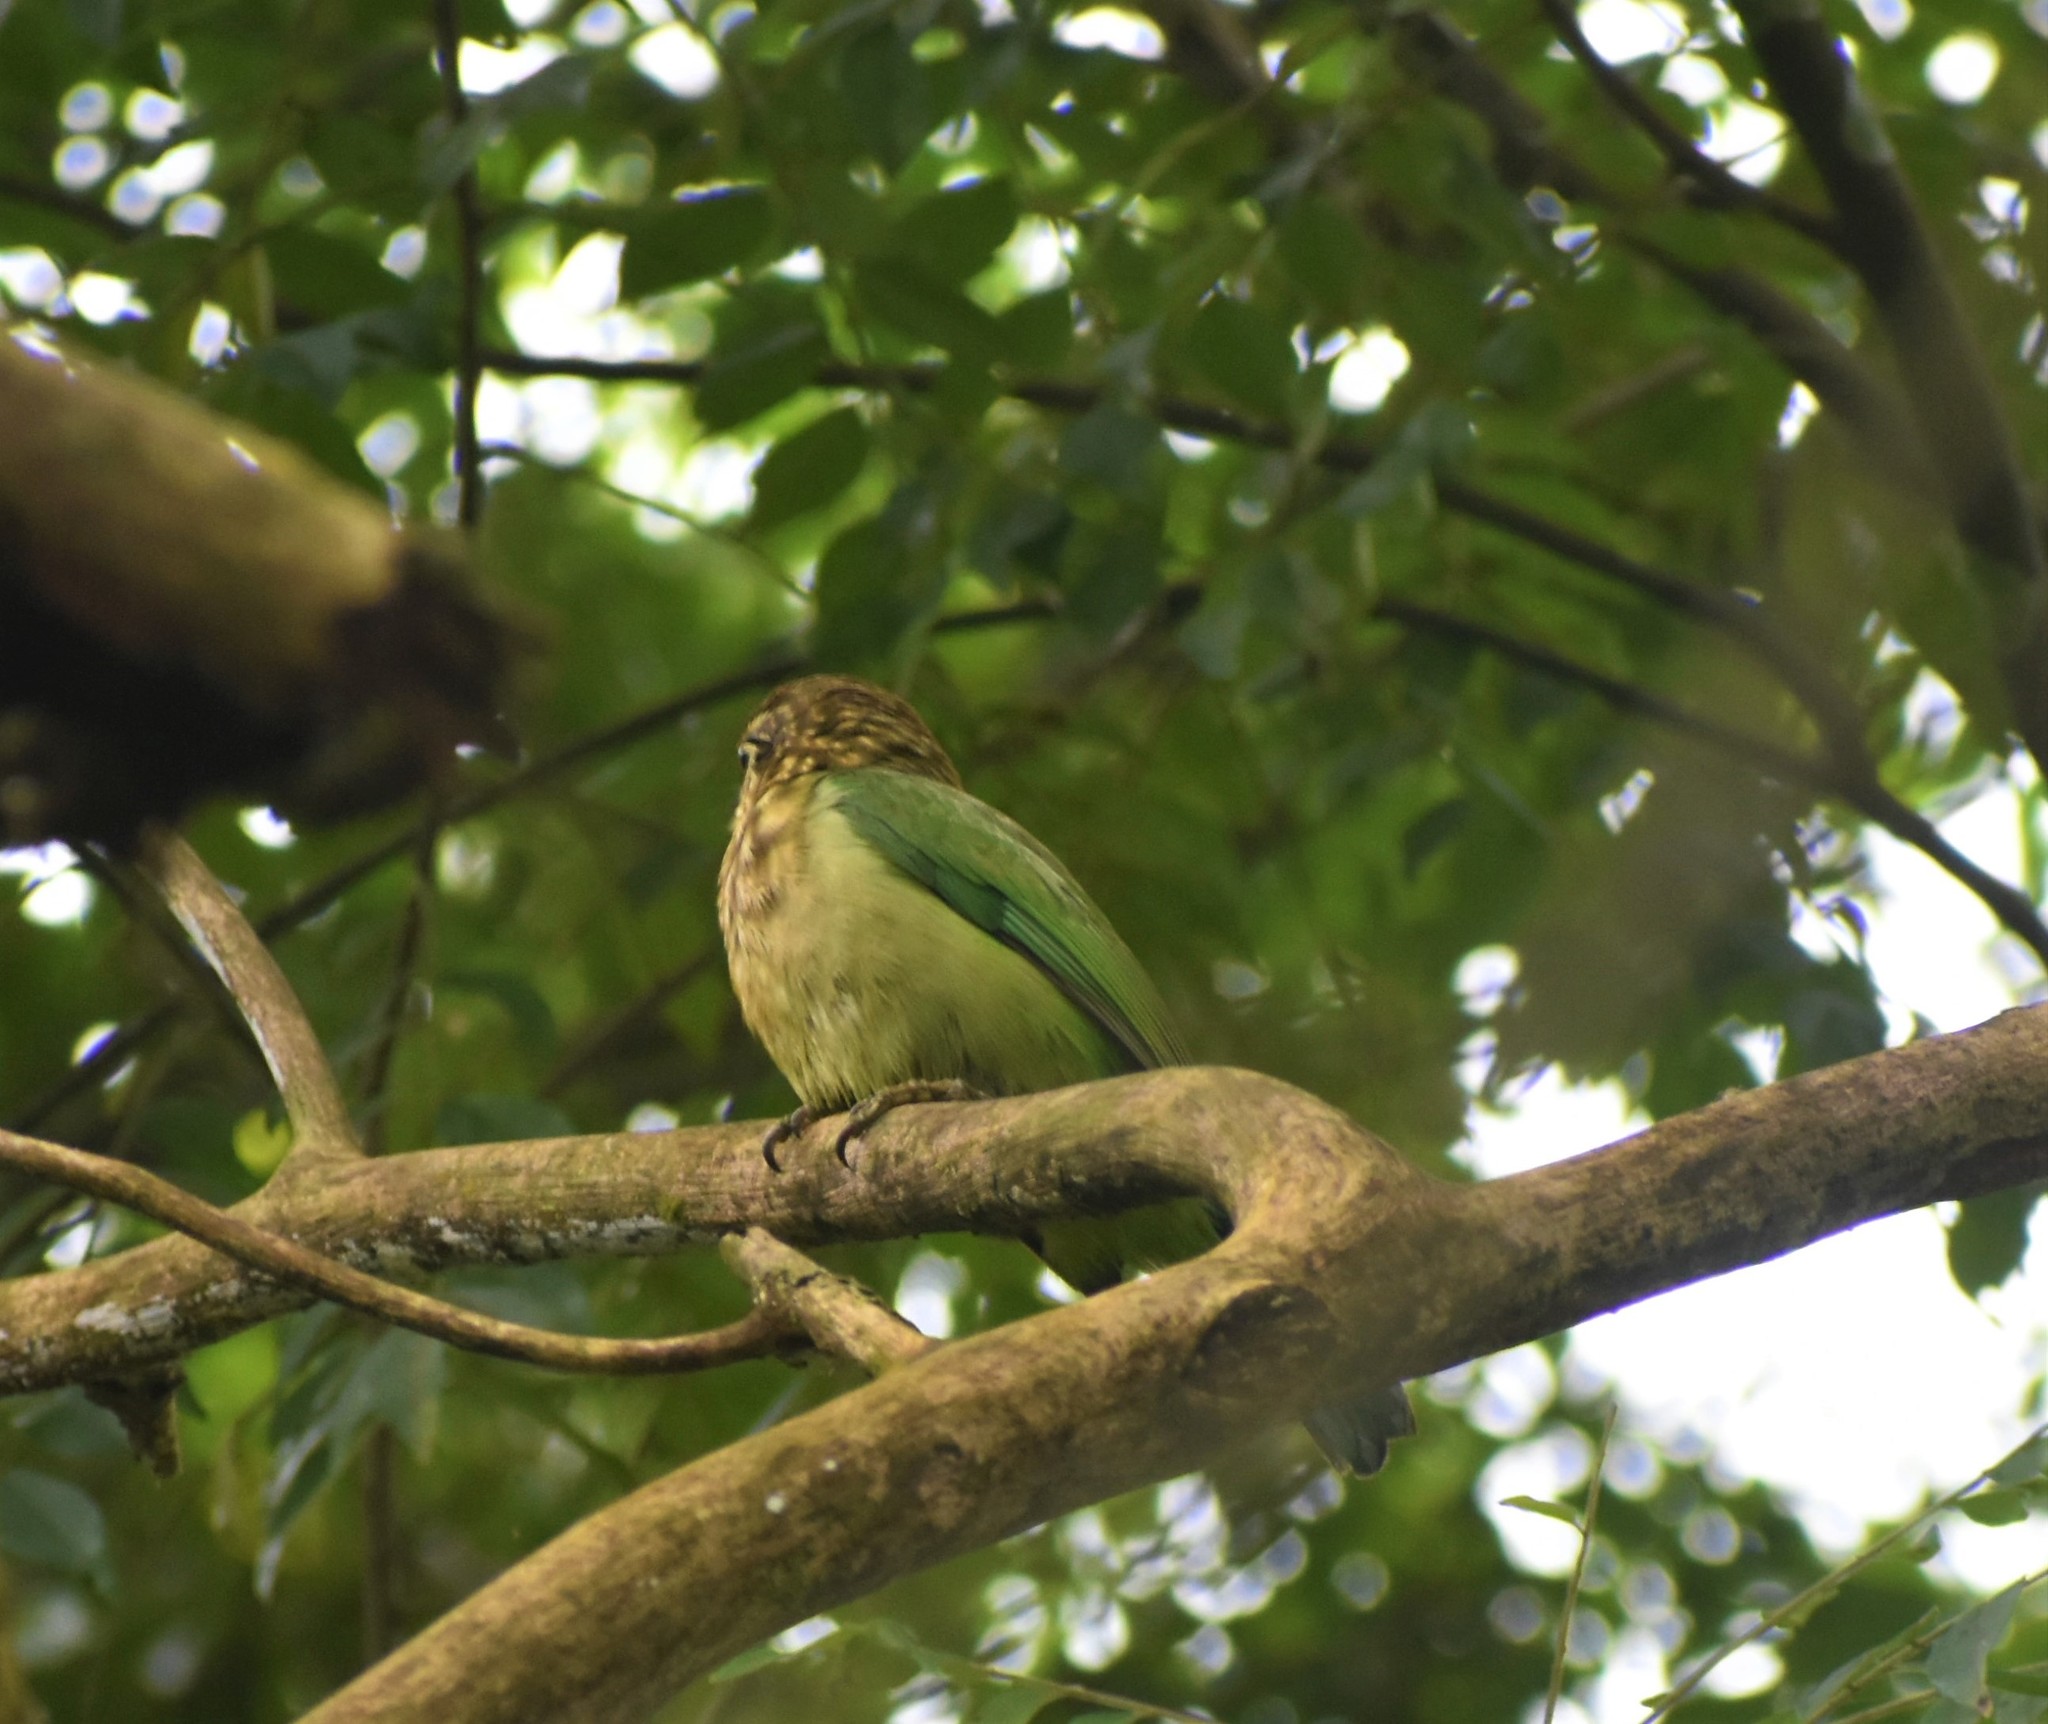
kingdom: Animalia
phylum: Chordata
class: Aves
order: Piciformes
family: Megalaimidae
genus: Psilopogon
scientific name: Psilopogon viridis
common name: White-cheeked barbet
